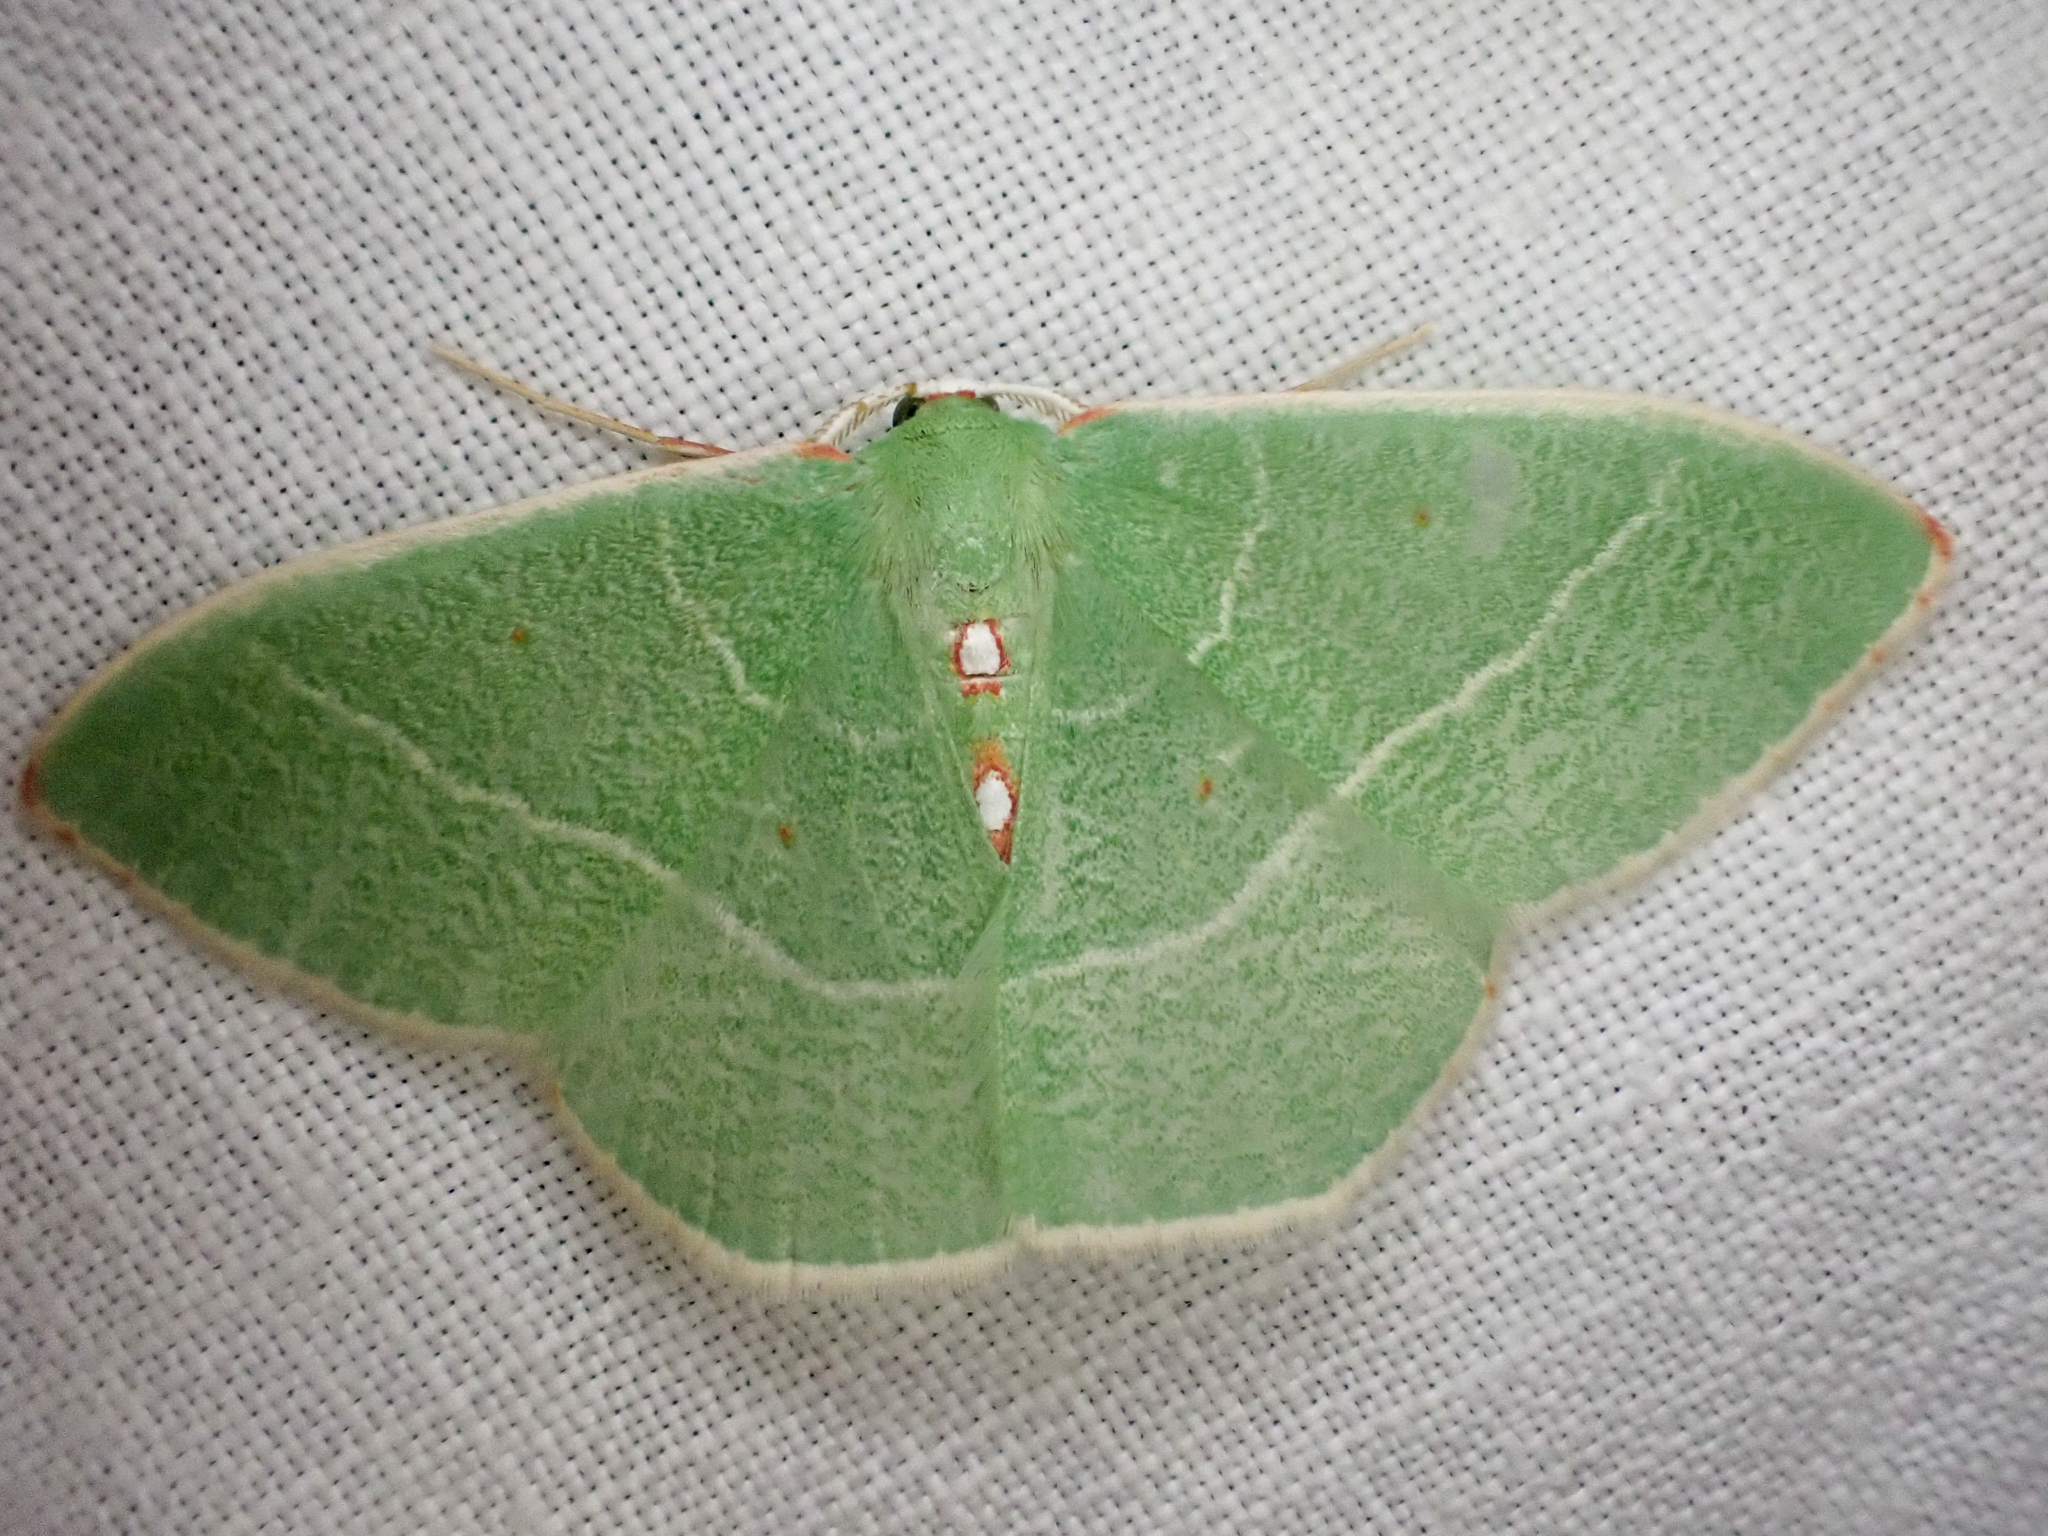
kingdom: Animalia
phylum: Arthropoda
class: Insecta
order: Lepidoptera
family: Geometridae
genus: Nemoria
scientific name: Nemoria darwiniata
